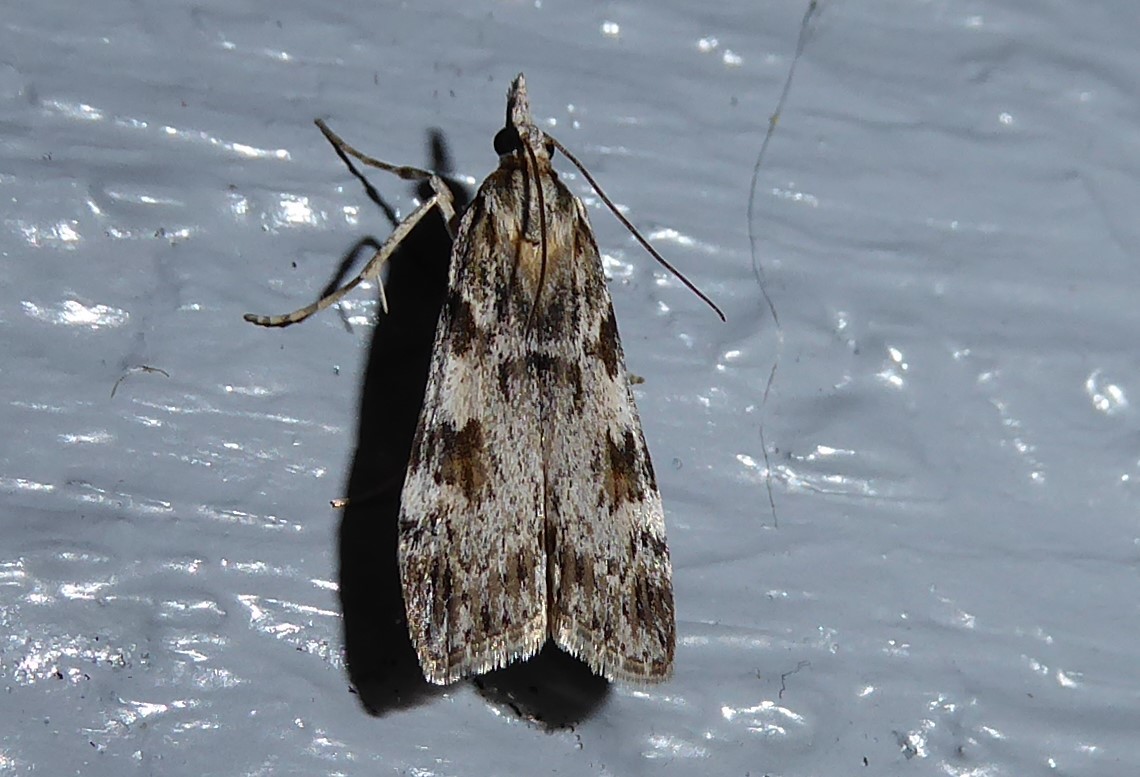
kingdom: Animalia
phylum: Arthropoda
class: Insecta
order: Lepidoptera
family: Crambidae
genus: Scoparia
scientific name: Scoparia halopis
